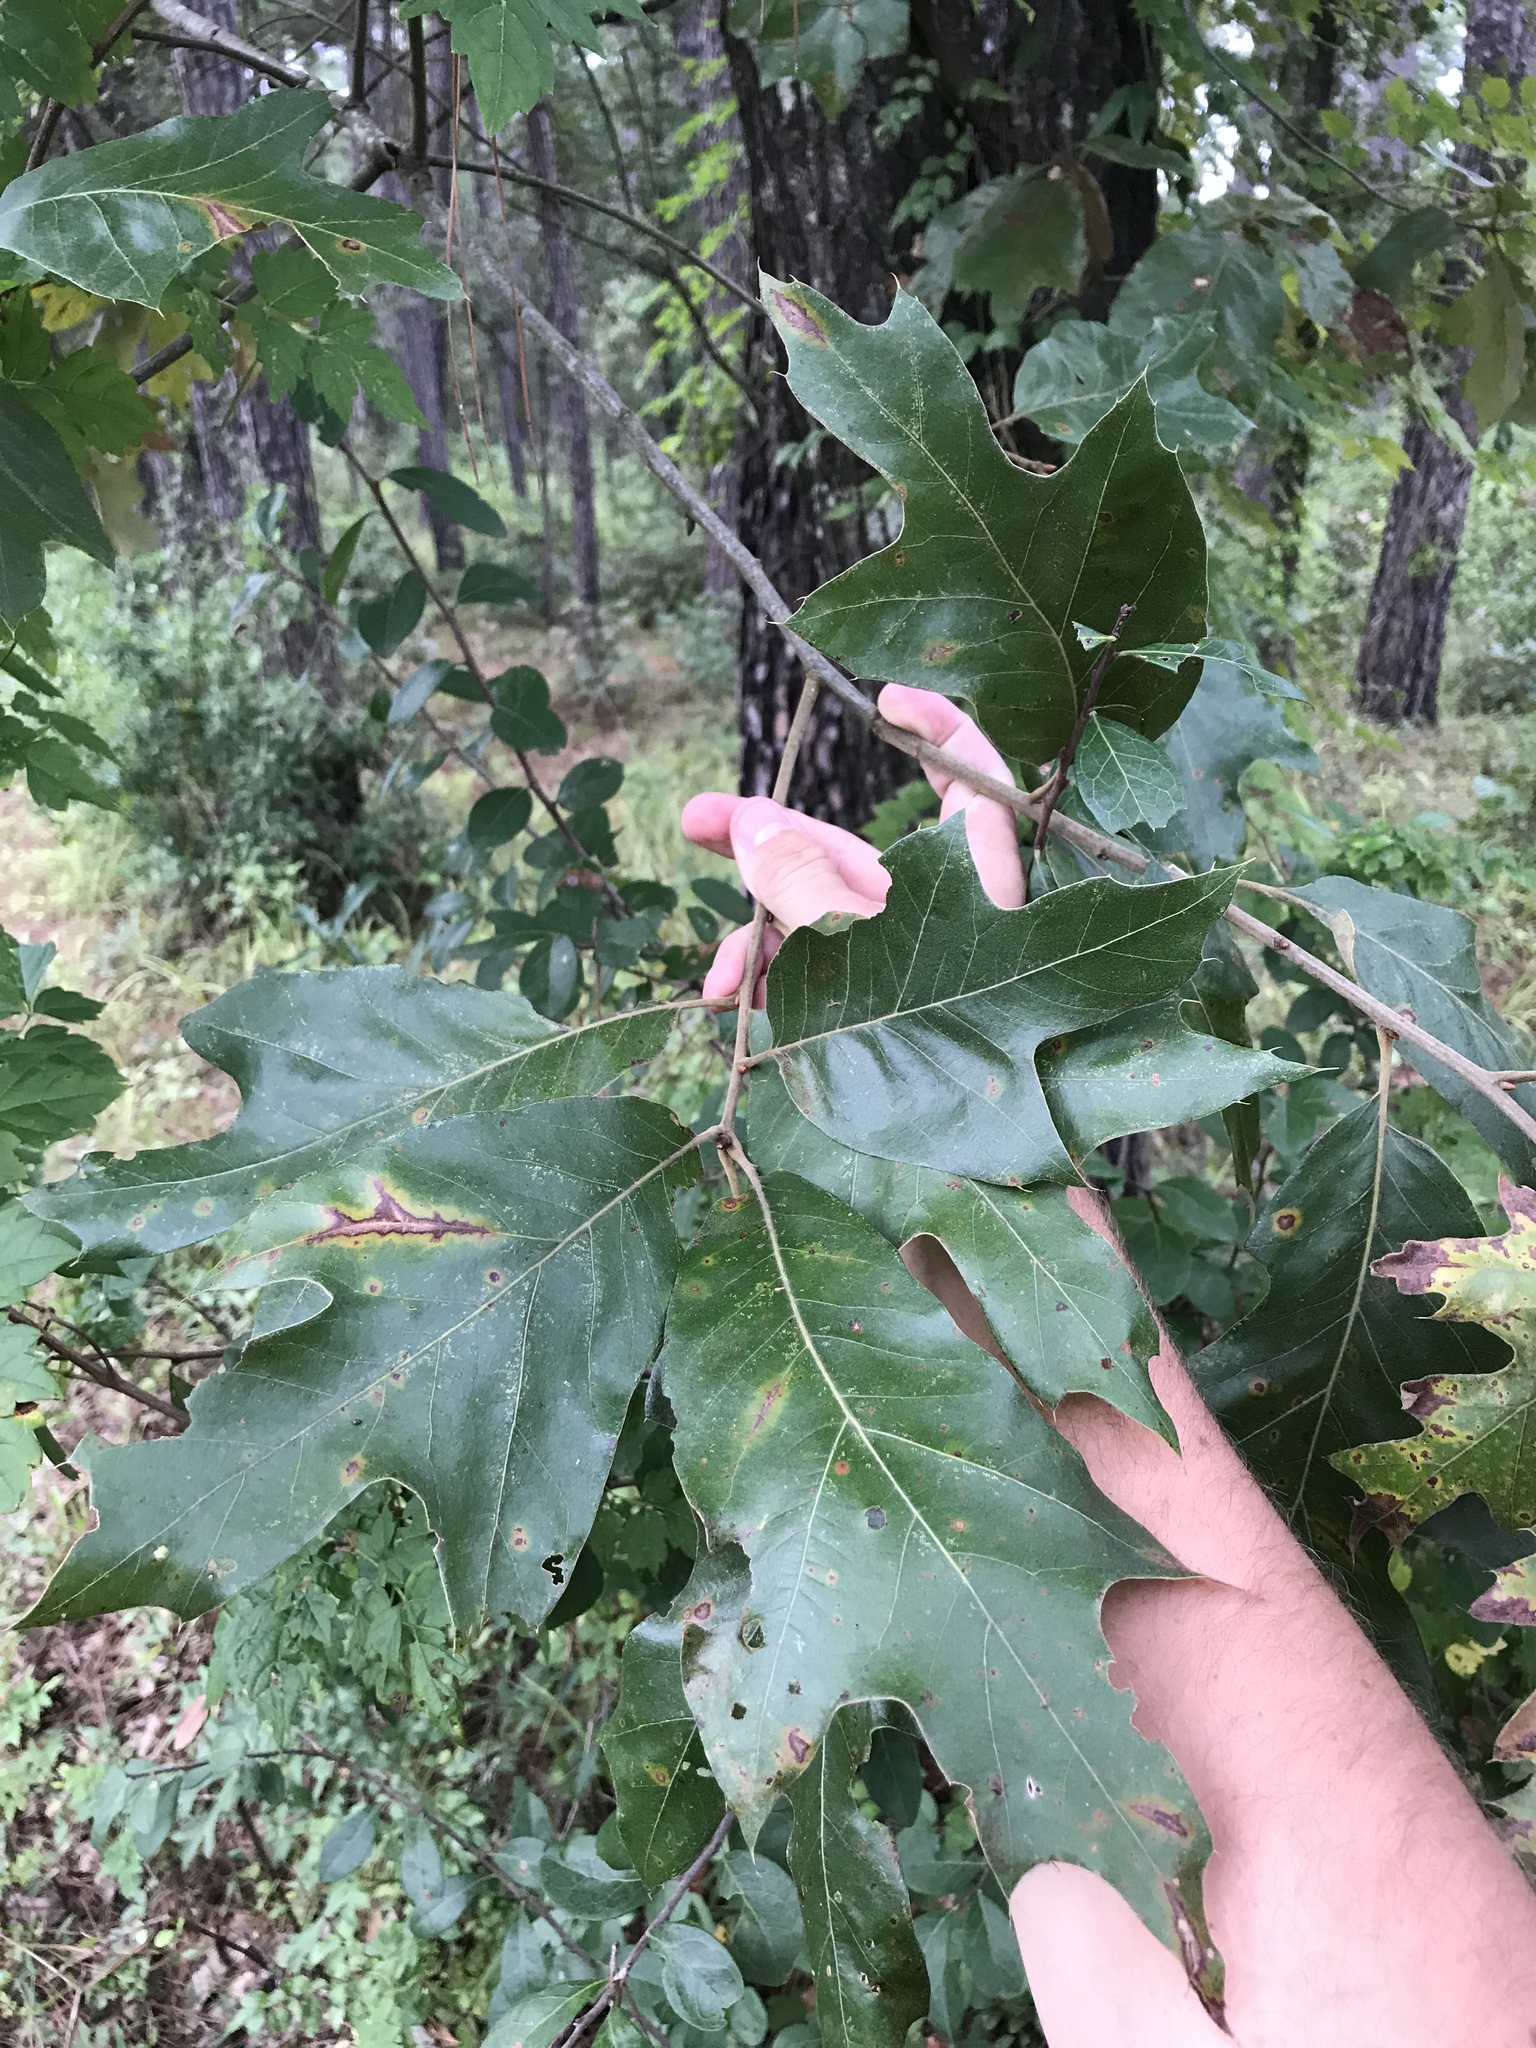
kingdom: Plantae
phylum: Tracheophyta
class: Magnoliopsida
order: Fagales
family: Fagaceae
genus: Quercus
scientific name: Quercus falcata
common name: Southern red oak
